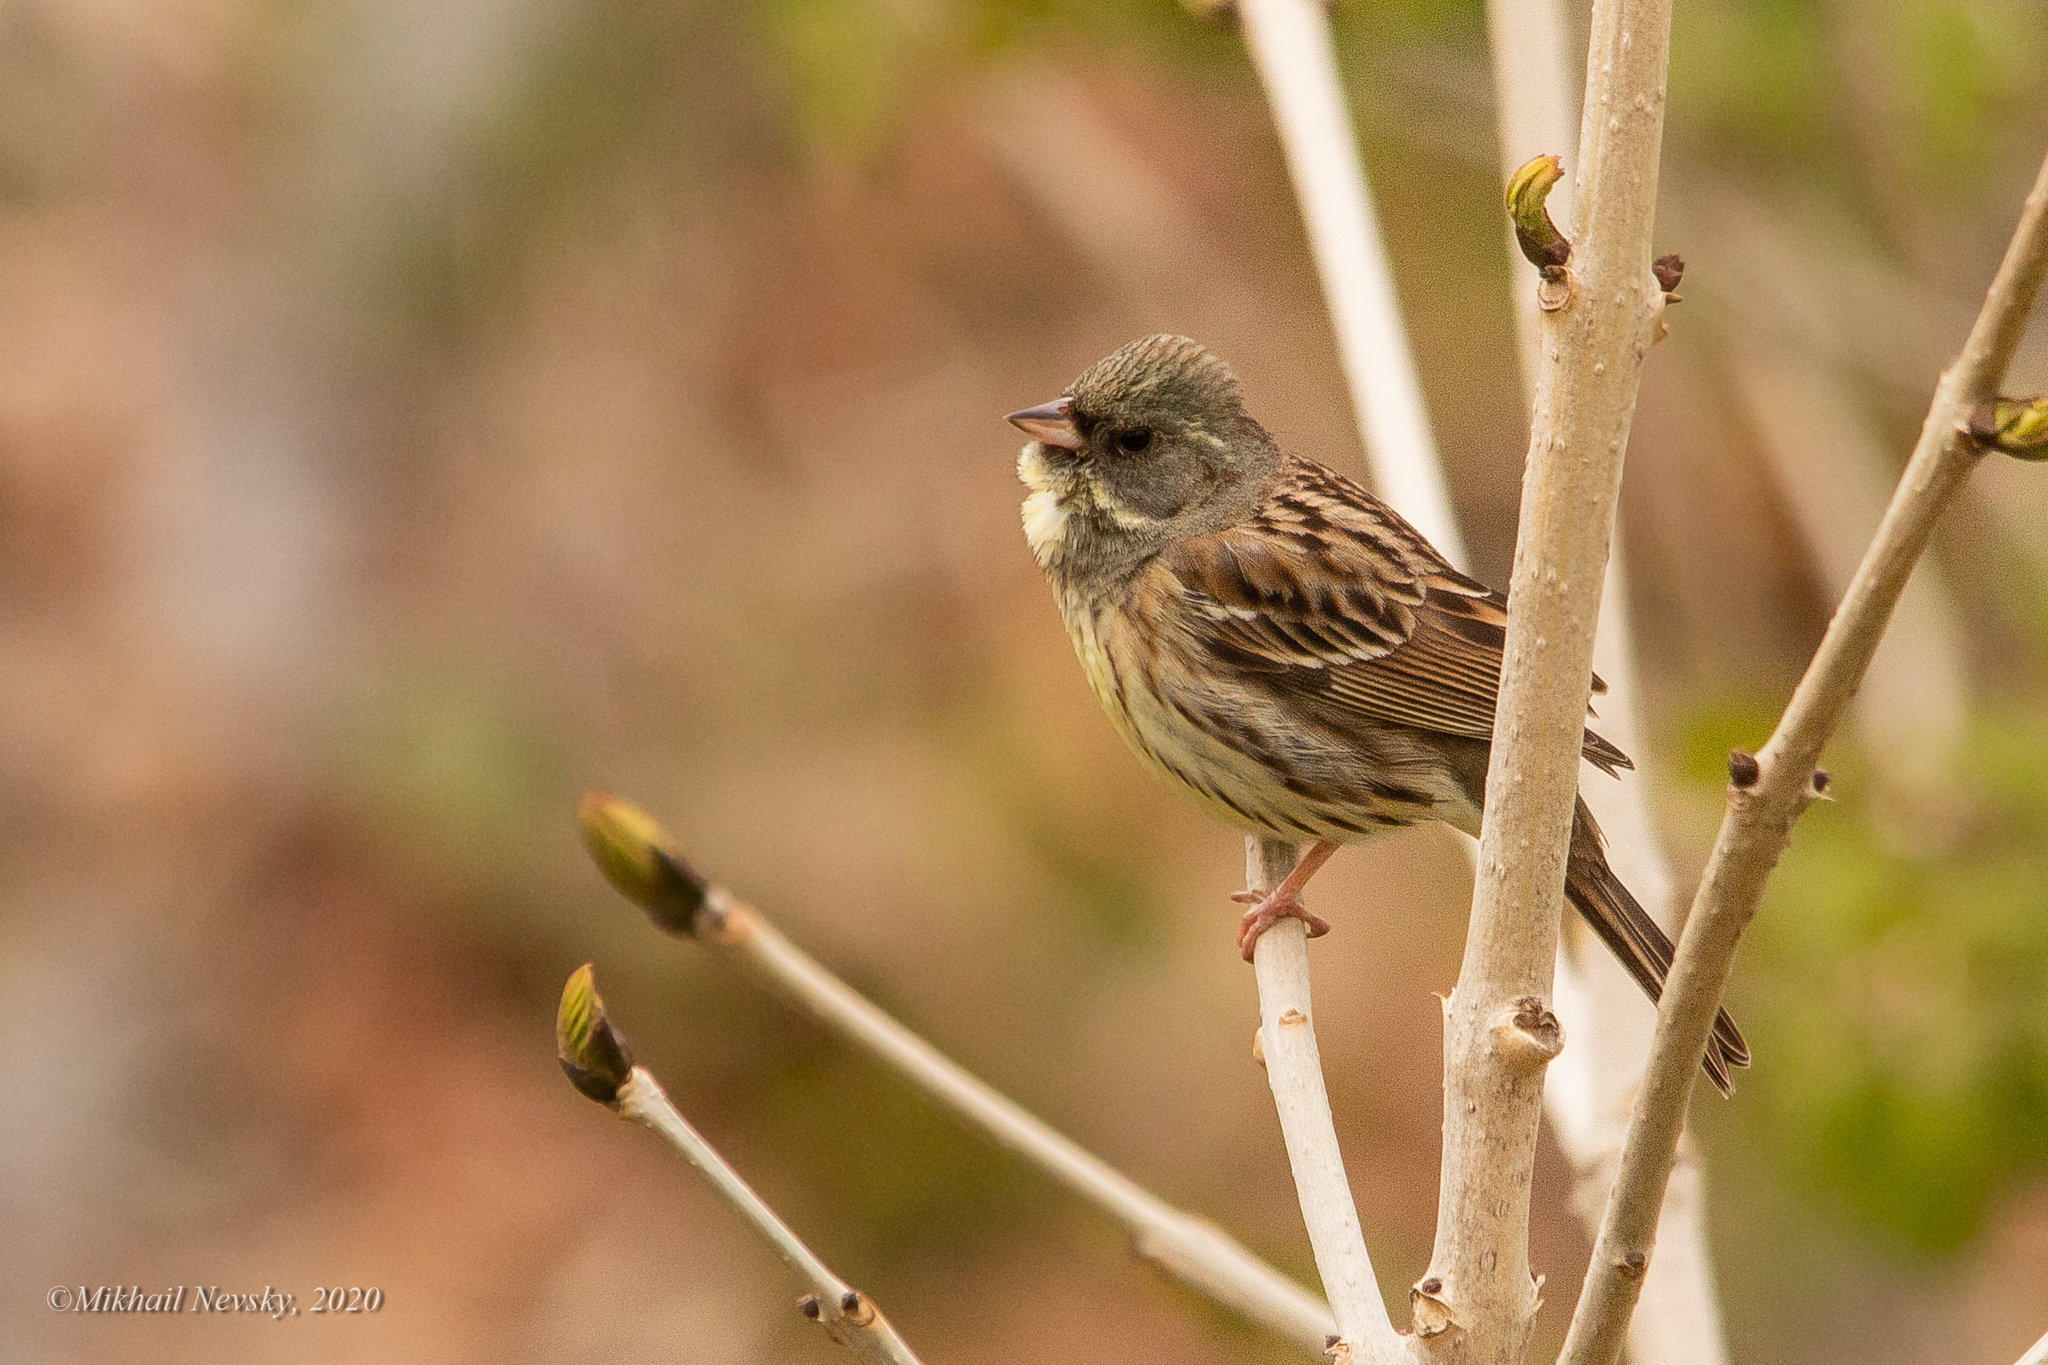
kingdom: Animalia
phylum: Chordata
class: Aves
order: Passeriformes
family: Emberizidae
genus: Emberiza
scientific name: Emberiza spodocephala
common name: Black-faced bunting
